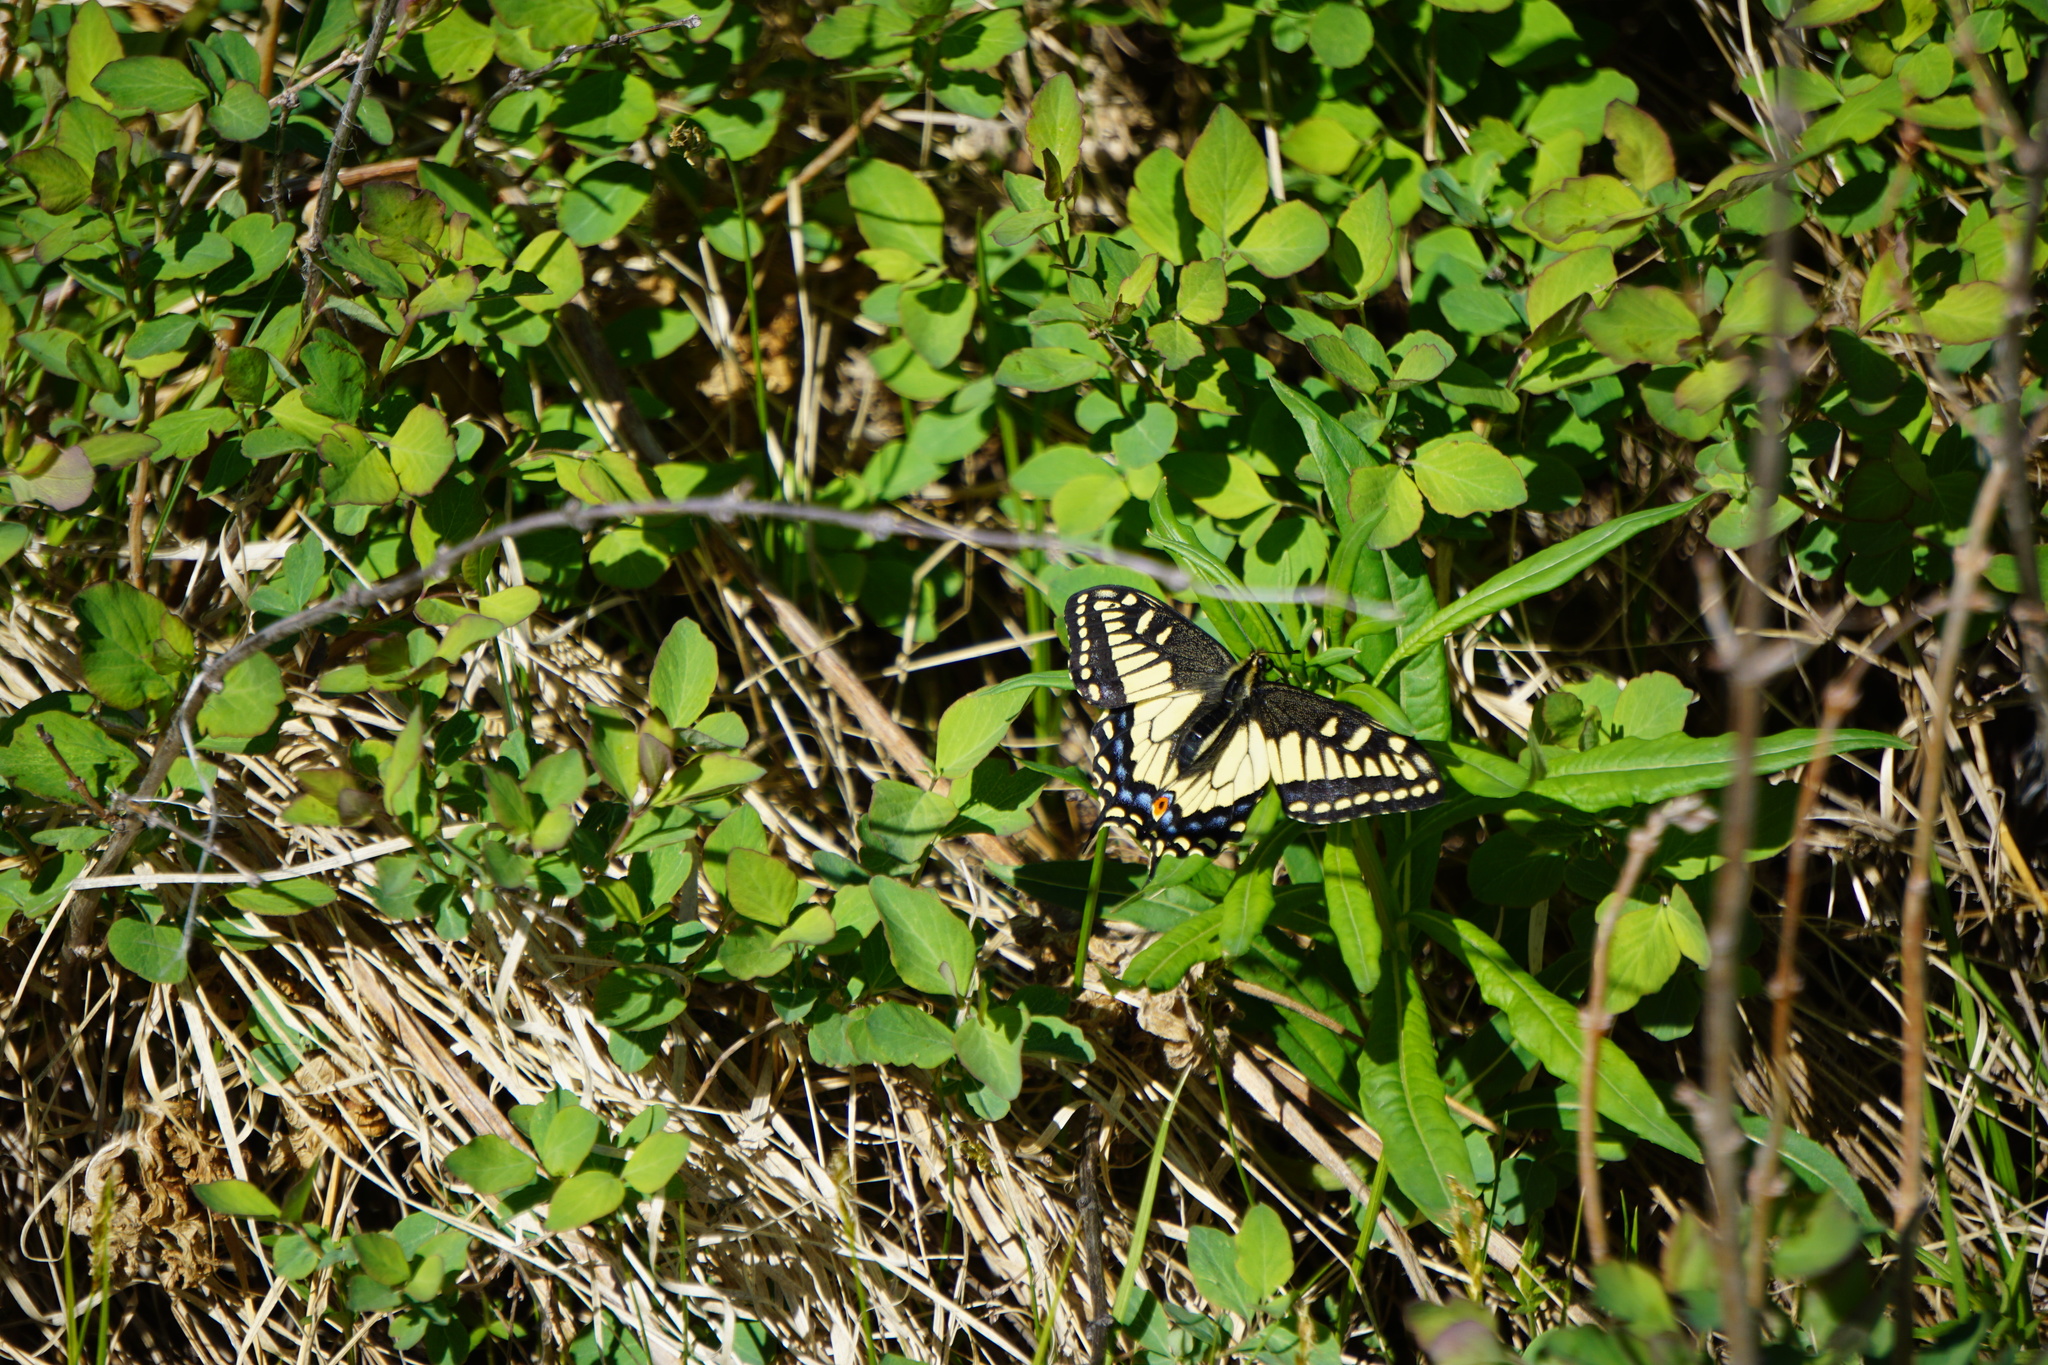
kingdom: Animalia
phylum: Arthropoda
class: Insecta
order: Lepidoptera
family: Papilionidae
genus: Papilio
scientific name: Papilio zelicaon
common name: Anise swallowtail
